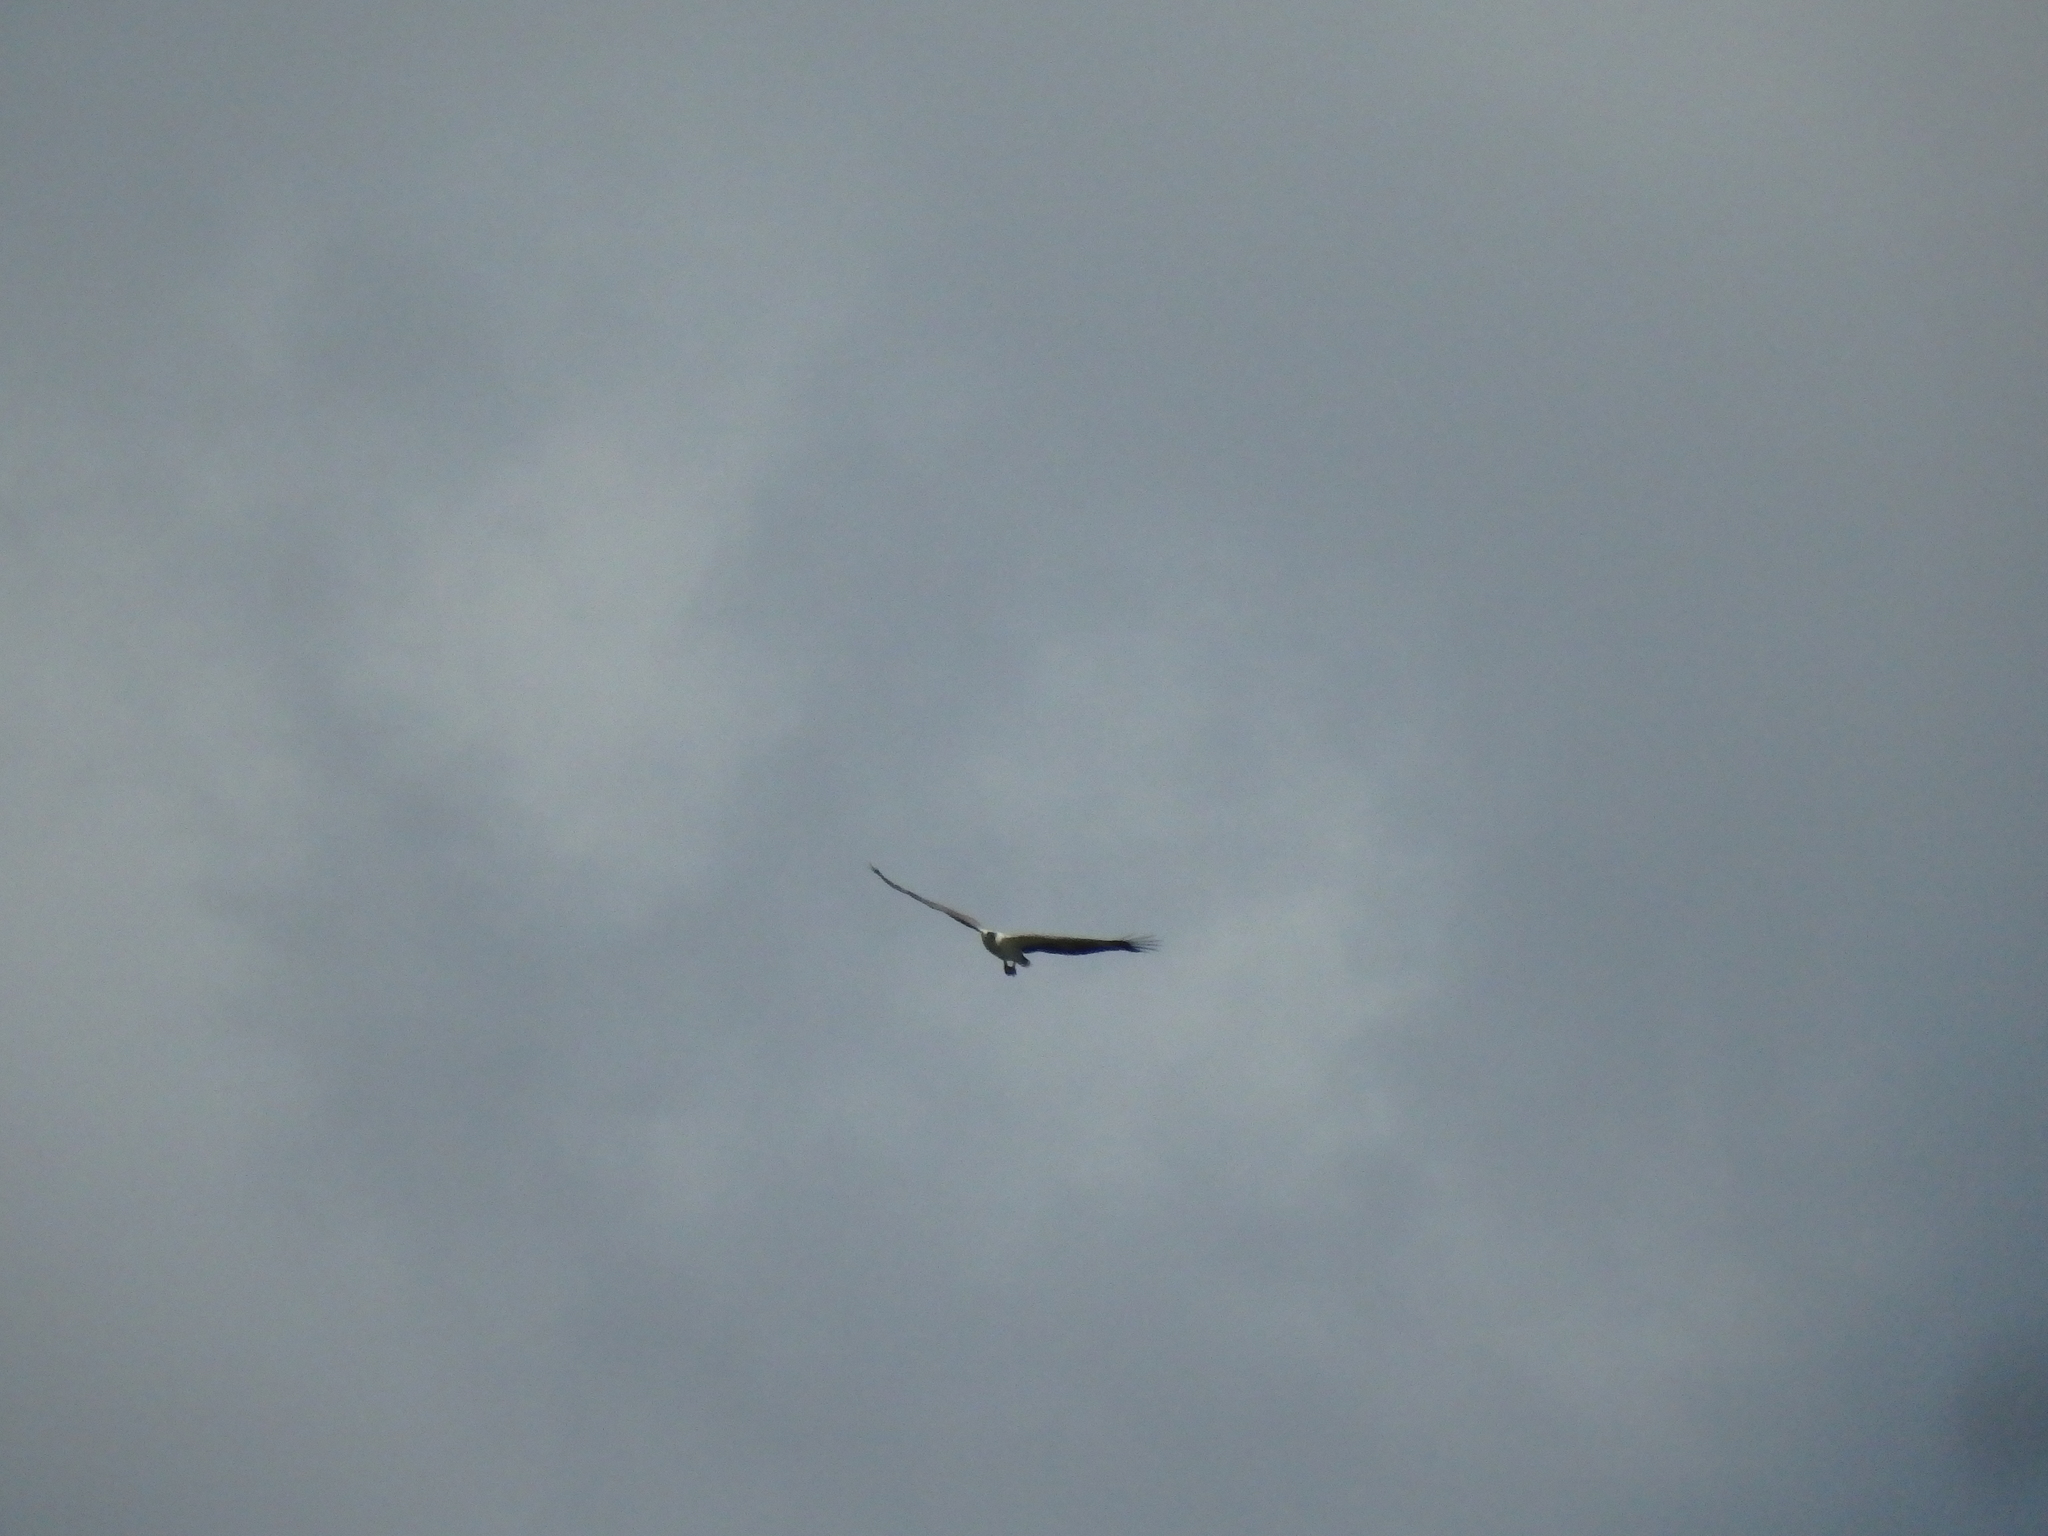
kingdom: Animalia
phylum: Chordata
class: Aves
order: Accipitriformes
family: Accipitridae
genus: Haliaeetus
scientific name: Haliaeetus leucogaster
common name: White-bellied sea eagle
